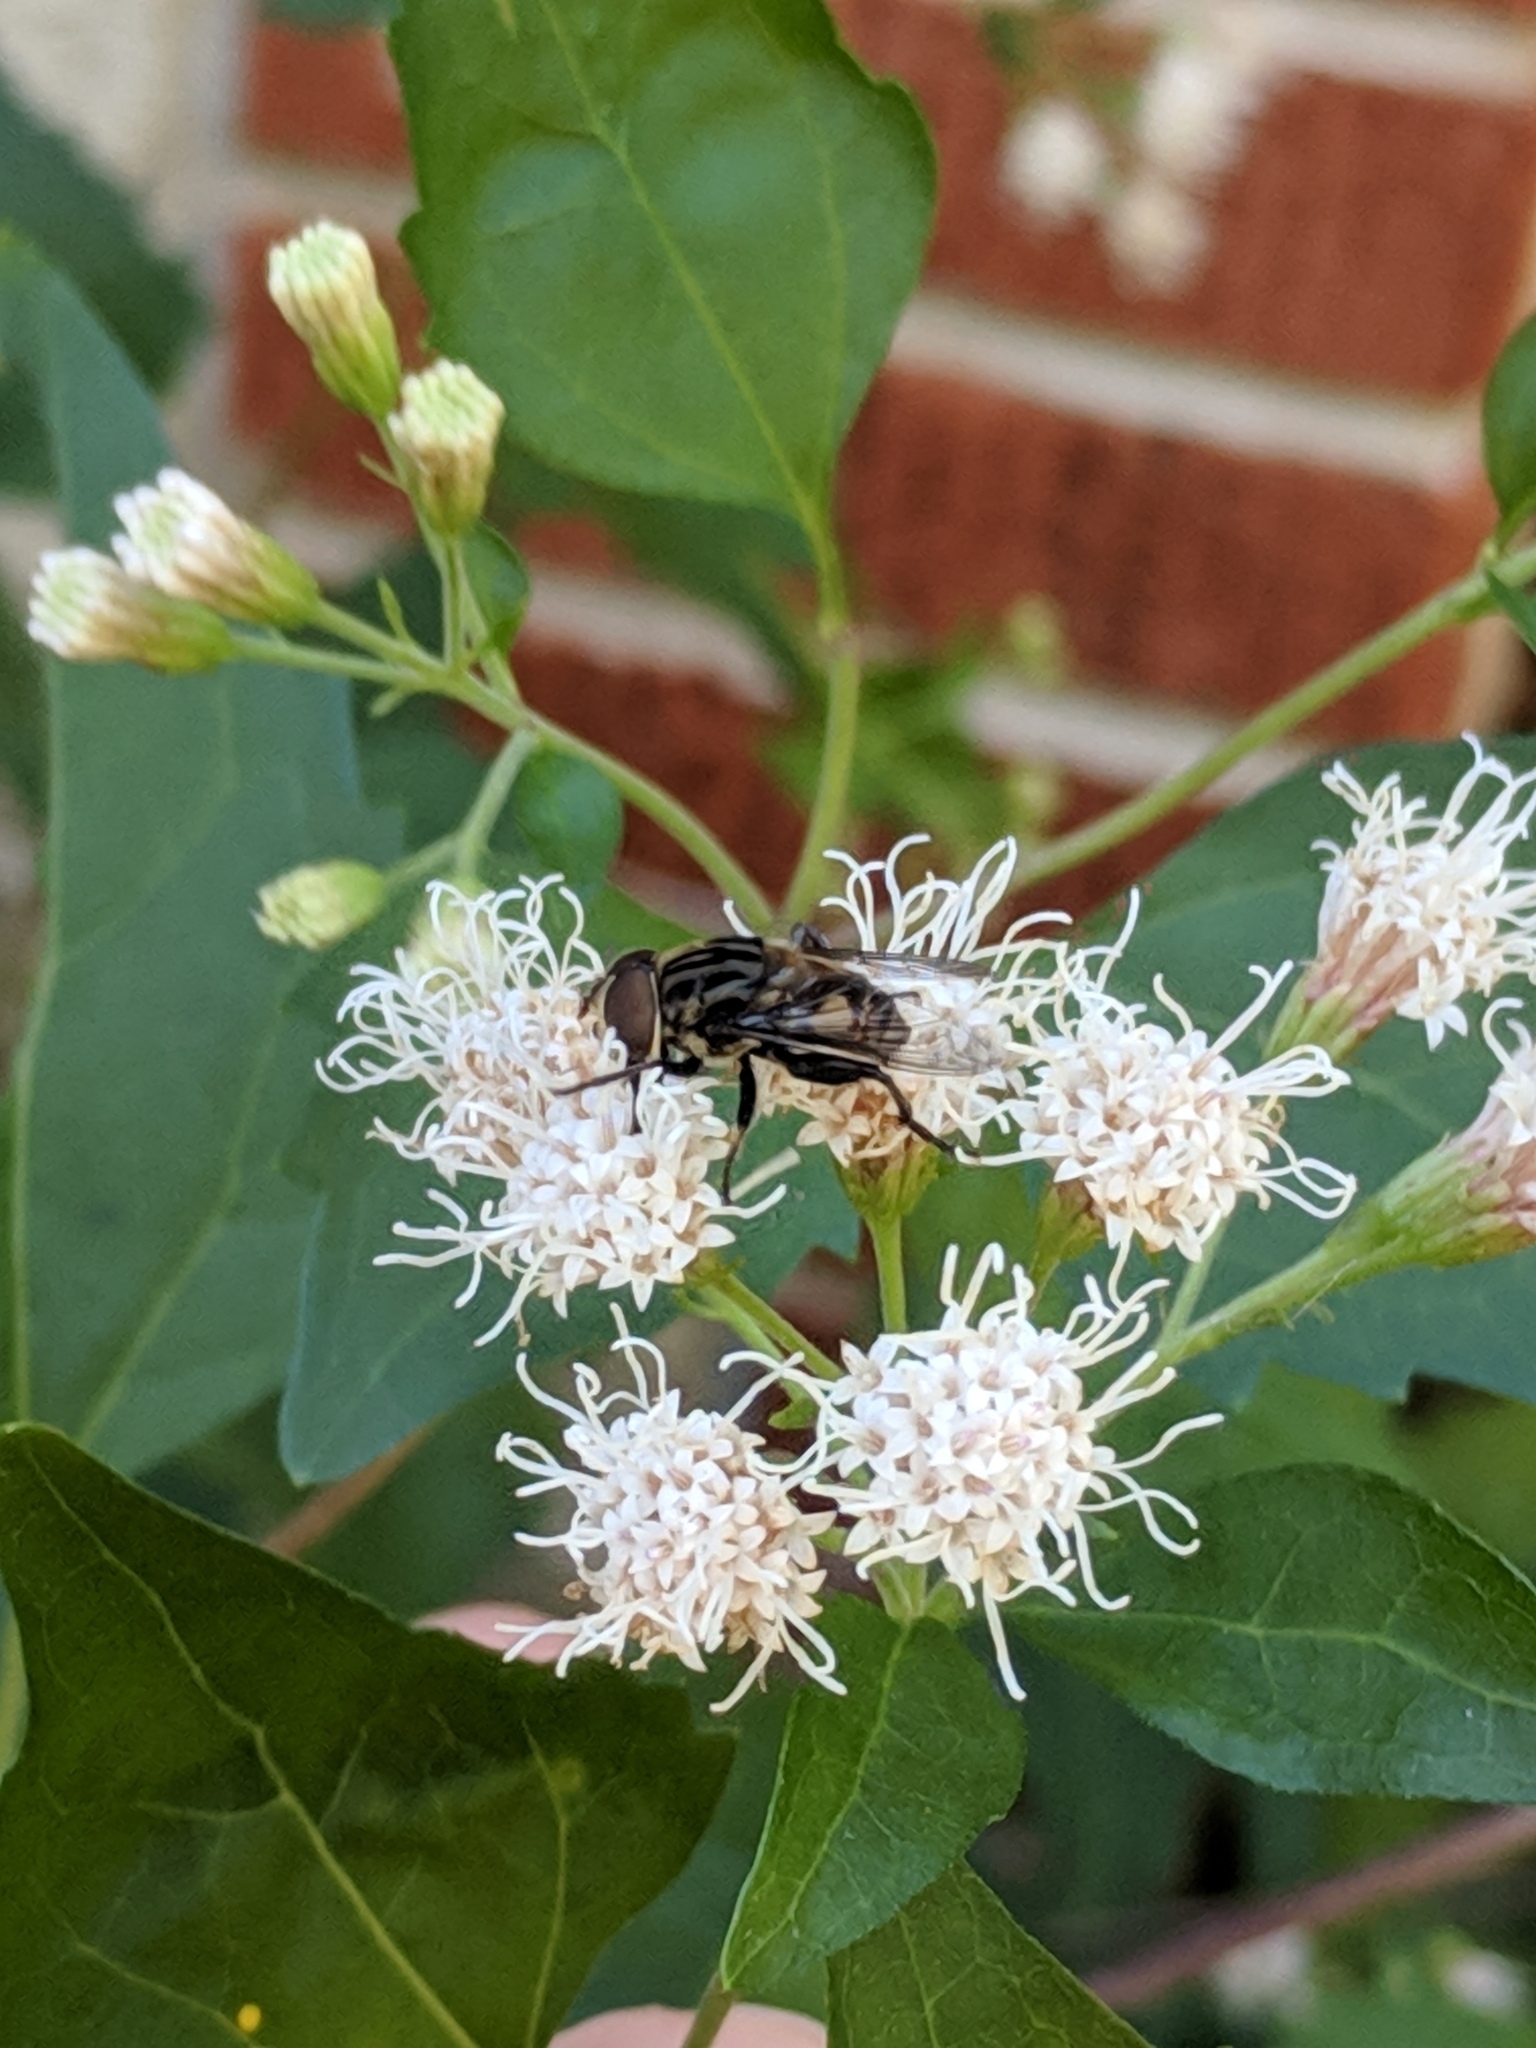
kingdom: Animalia
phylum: Arthropoda
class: Insecta
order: Diptera
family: Syrphidae
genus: Palpada
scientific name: Palpada furcata
